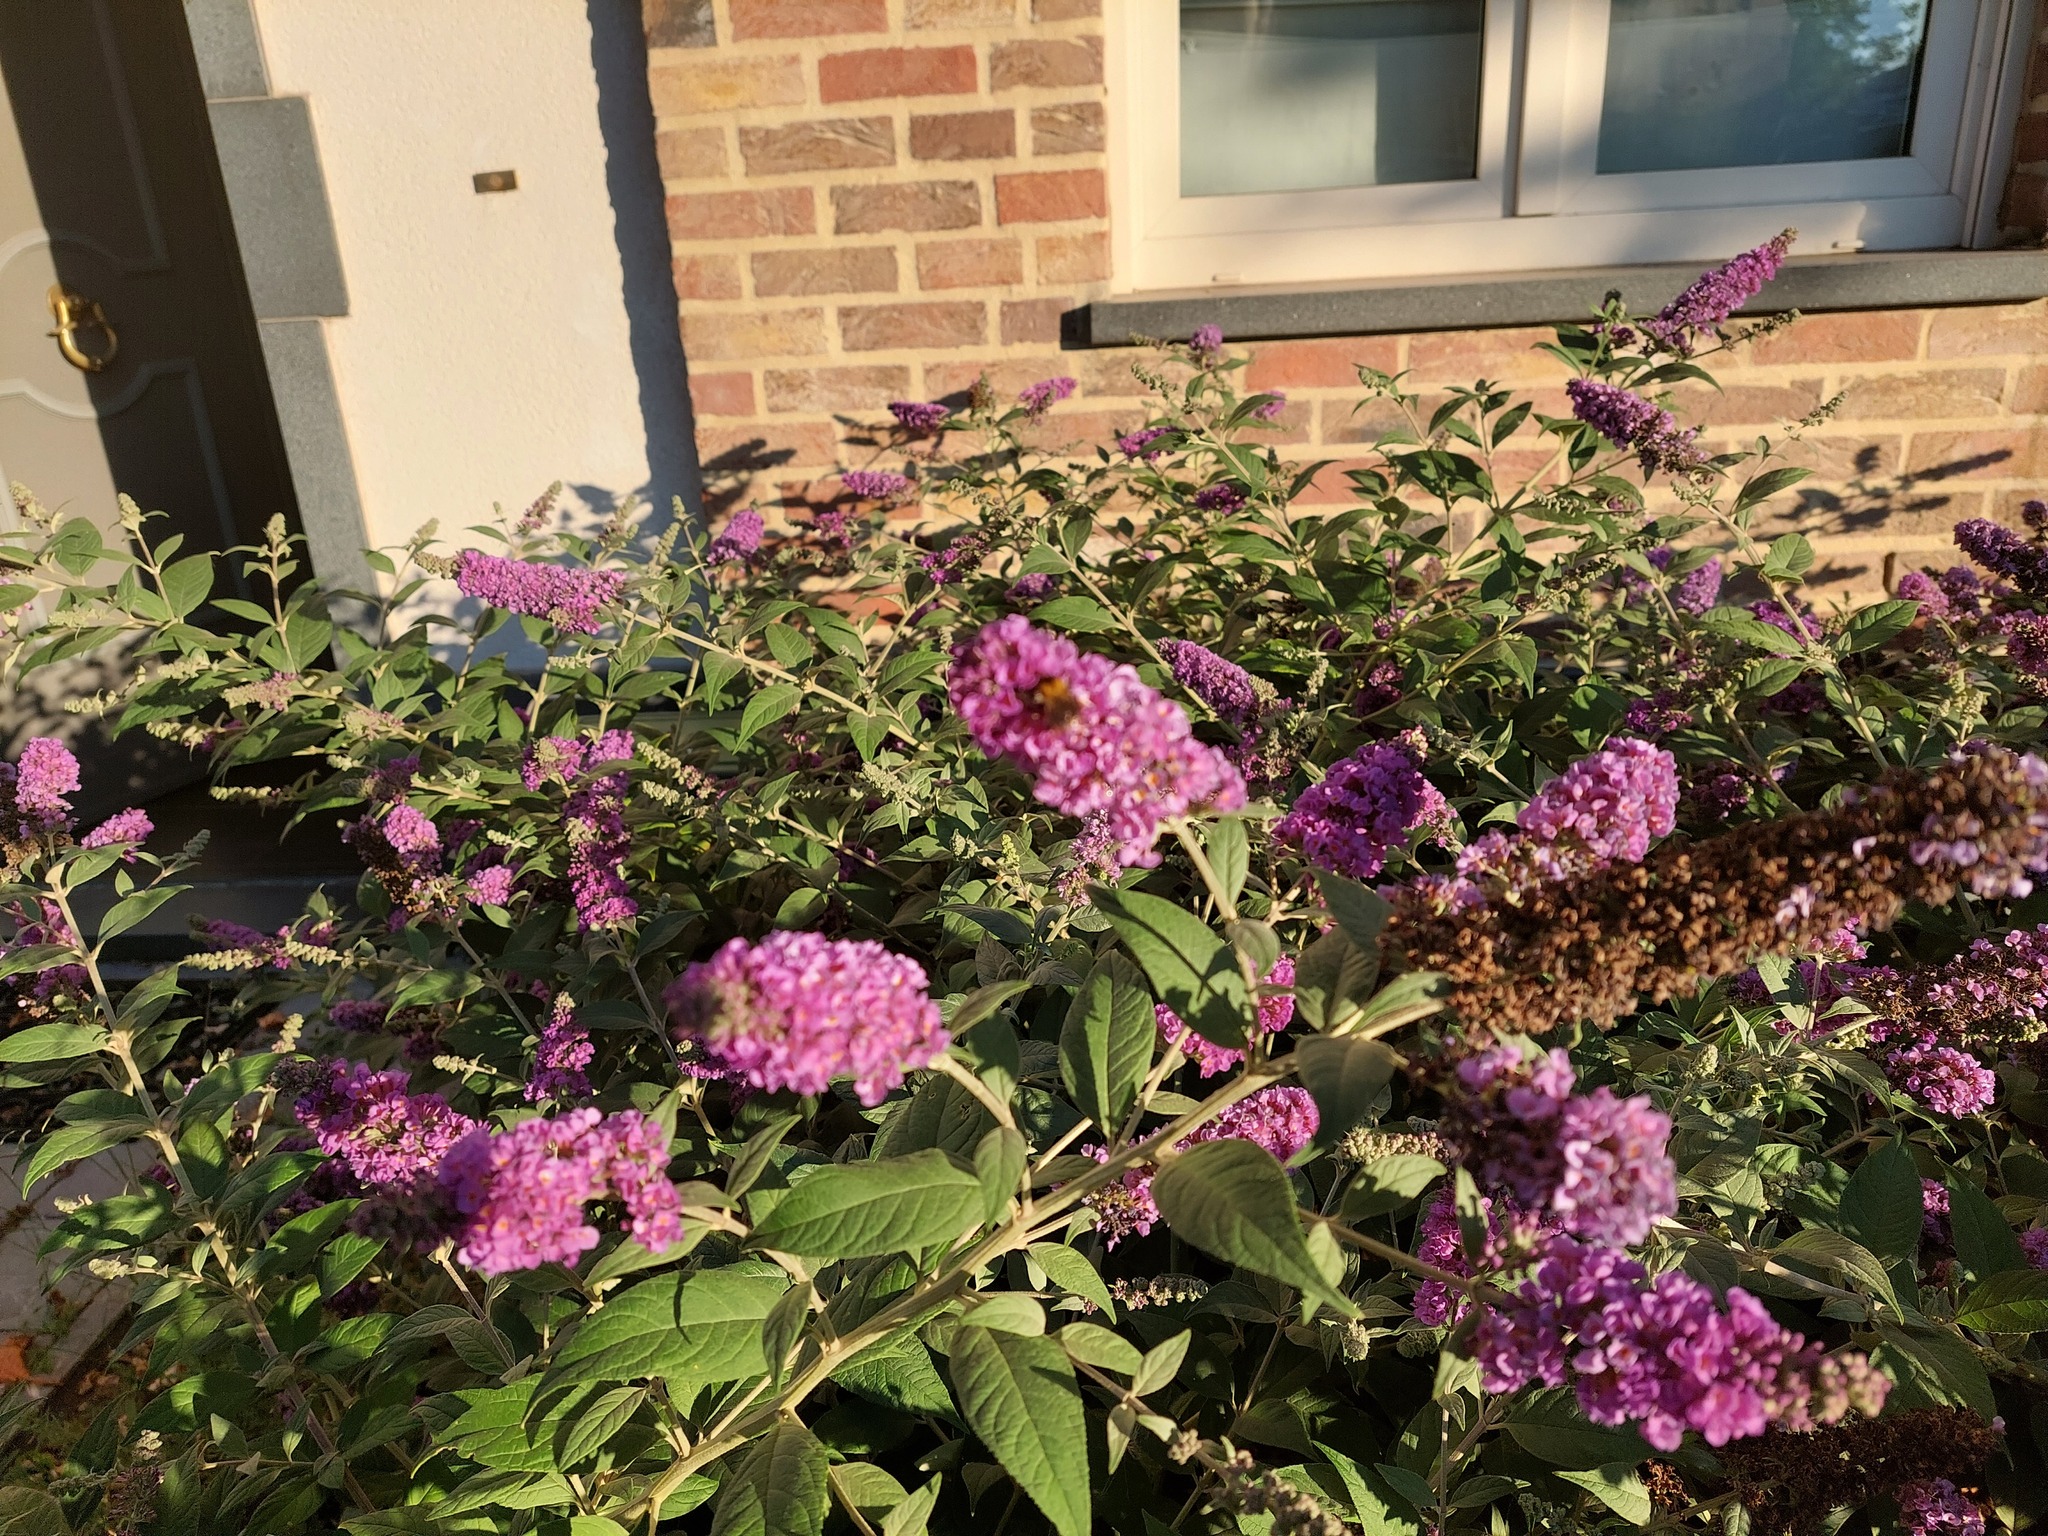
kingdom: Animalia
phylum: Arthropoda
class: Insecta
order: Hymenoptera
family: Apidae
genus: Bombus
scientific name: Bombus
